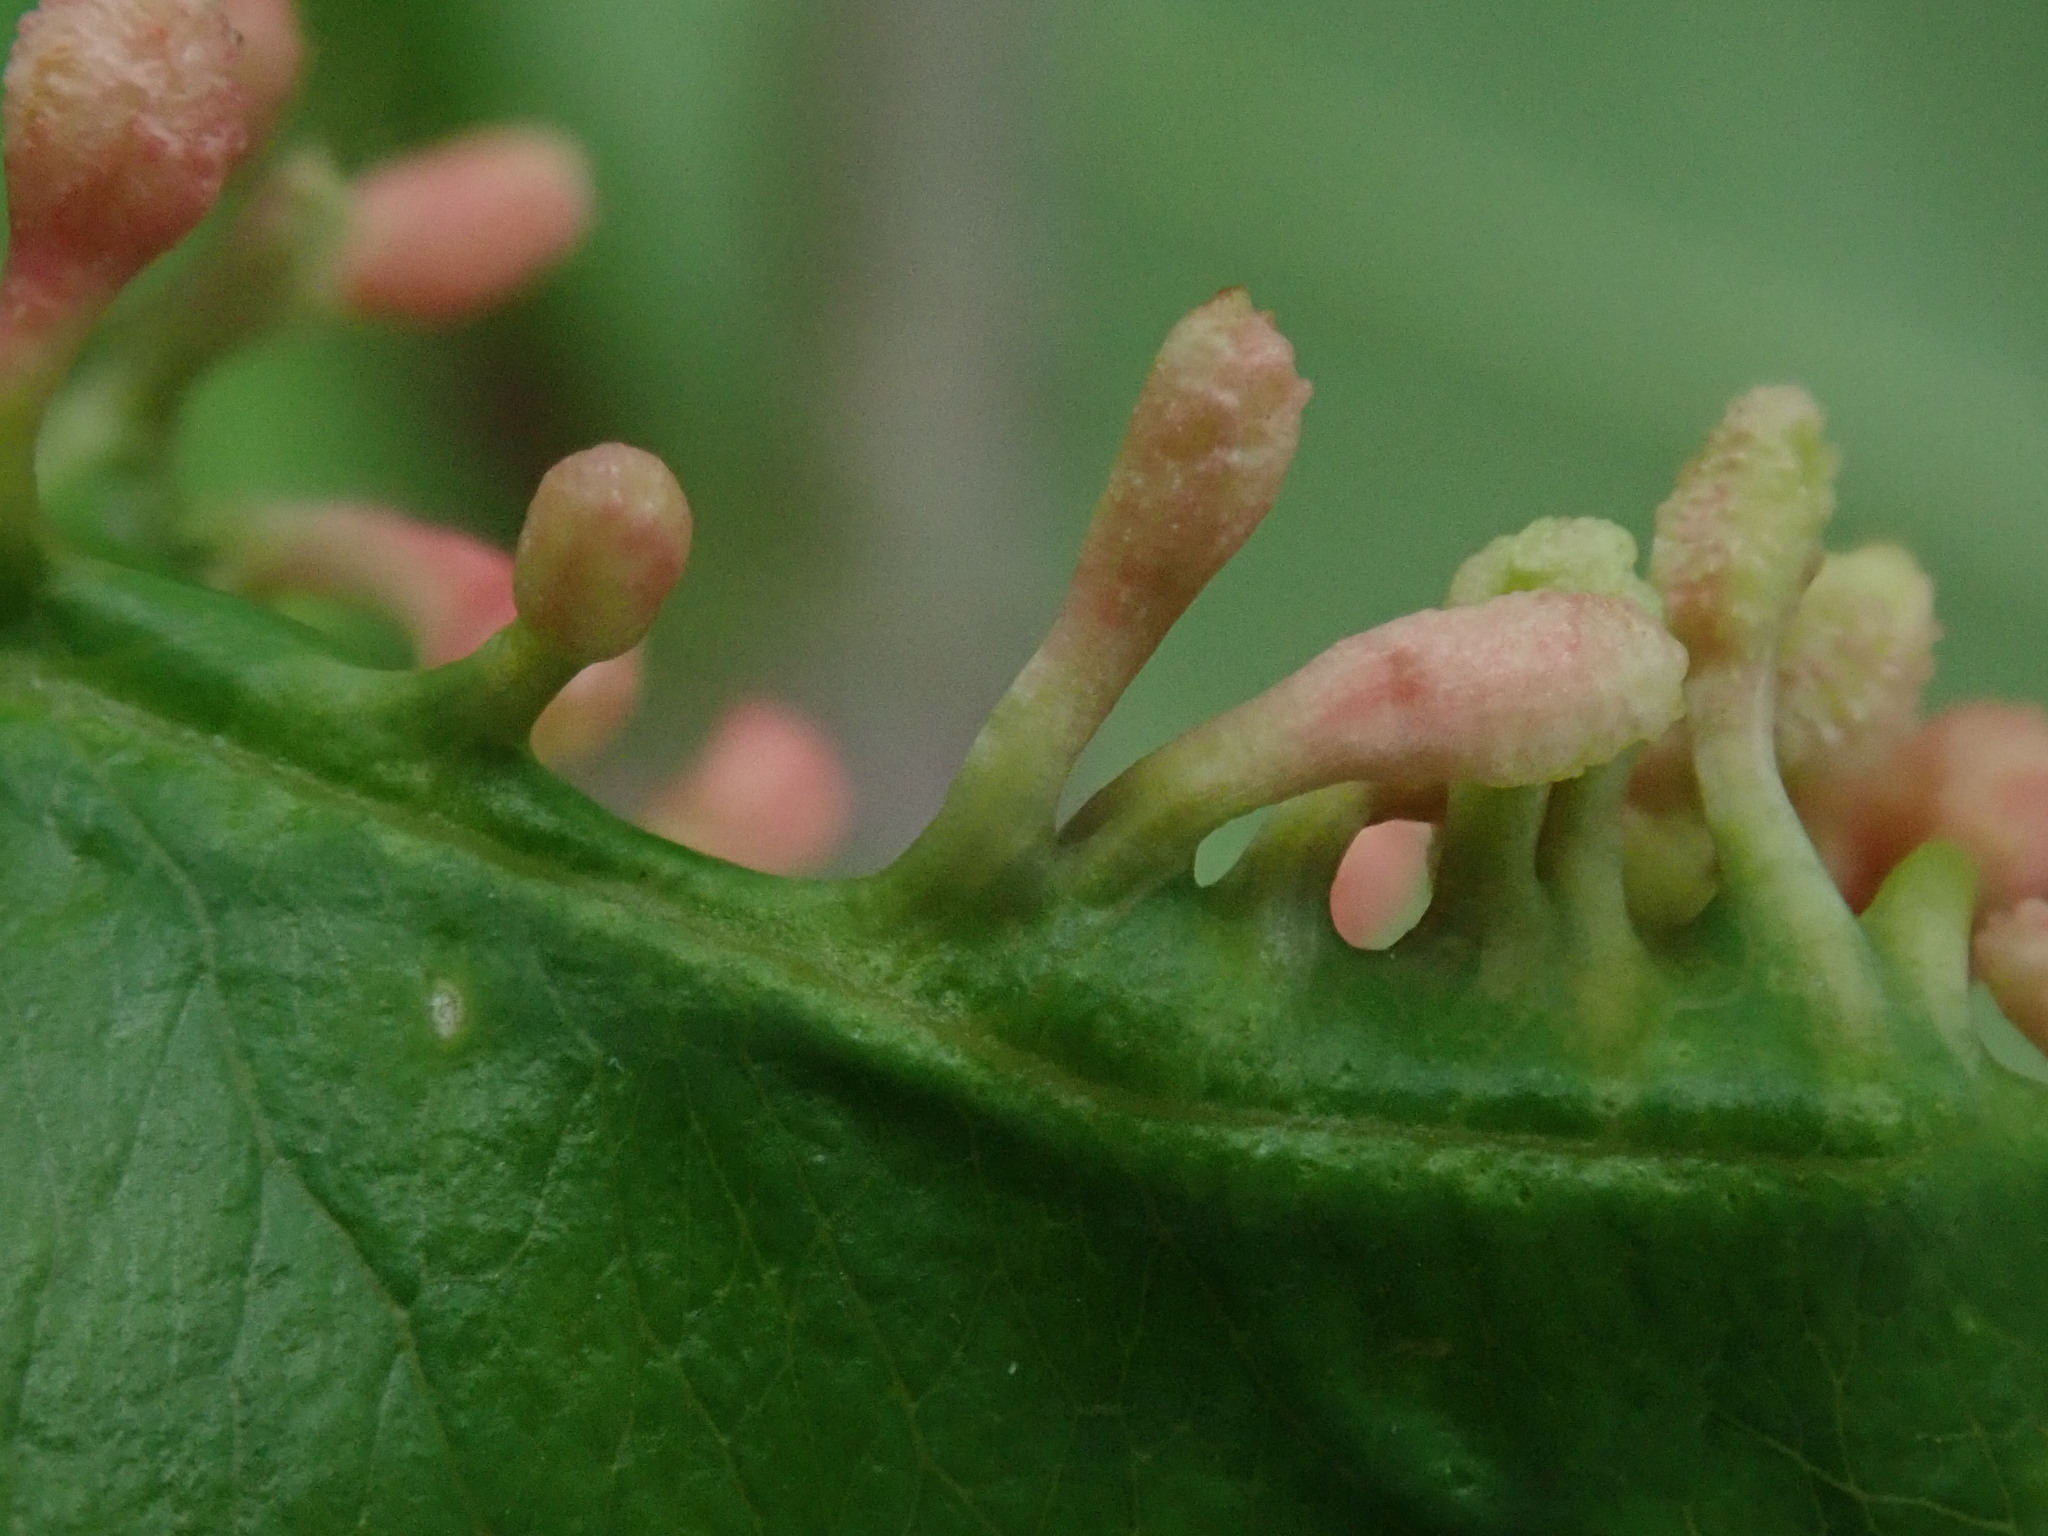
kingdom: Animalia
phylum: Arthropoda
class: Arachnida
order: Trombidiformes
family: Eriophyidae
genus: Eriophyes
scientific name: Eriophyes
